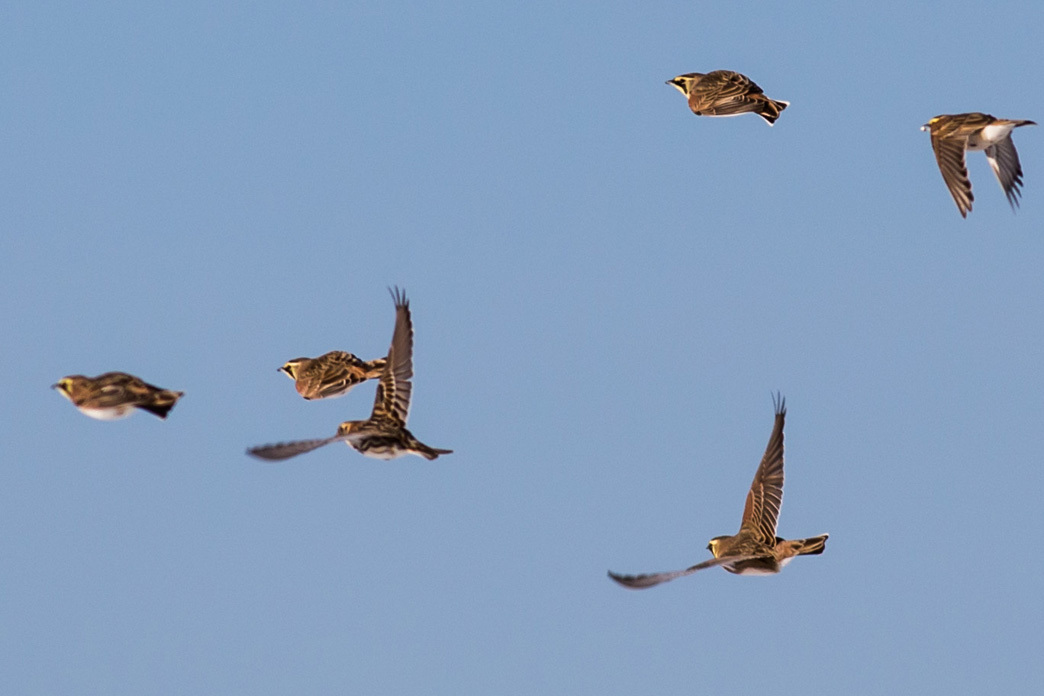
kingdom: Animalia
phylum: Chordata
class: Aves
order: Passeriformes
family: Calcariidae
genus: Calcarius
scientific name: Calcarius lapponicus
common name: Lapland longspur
